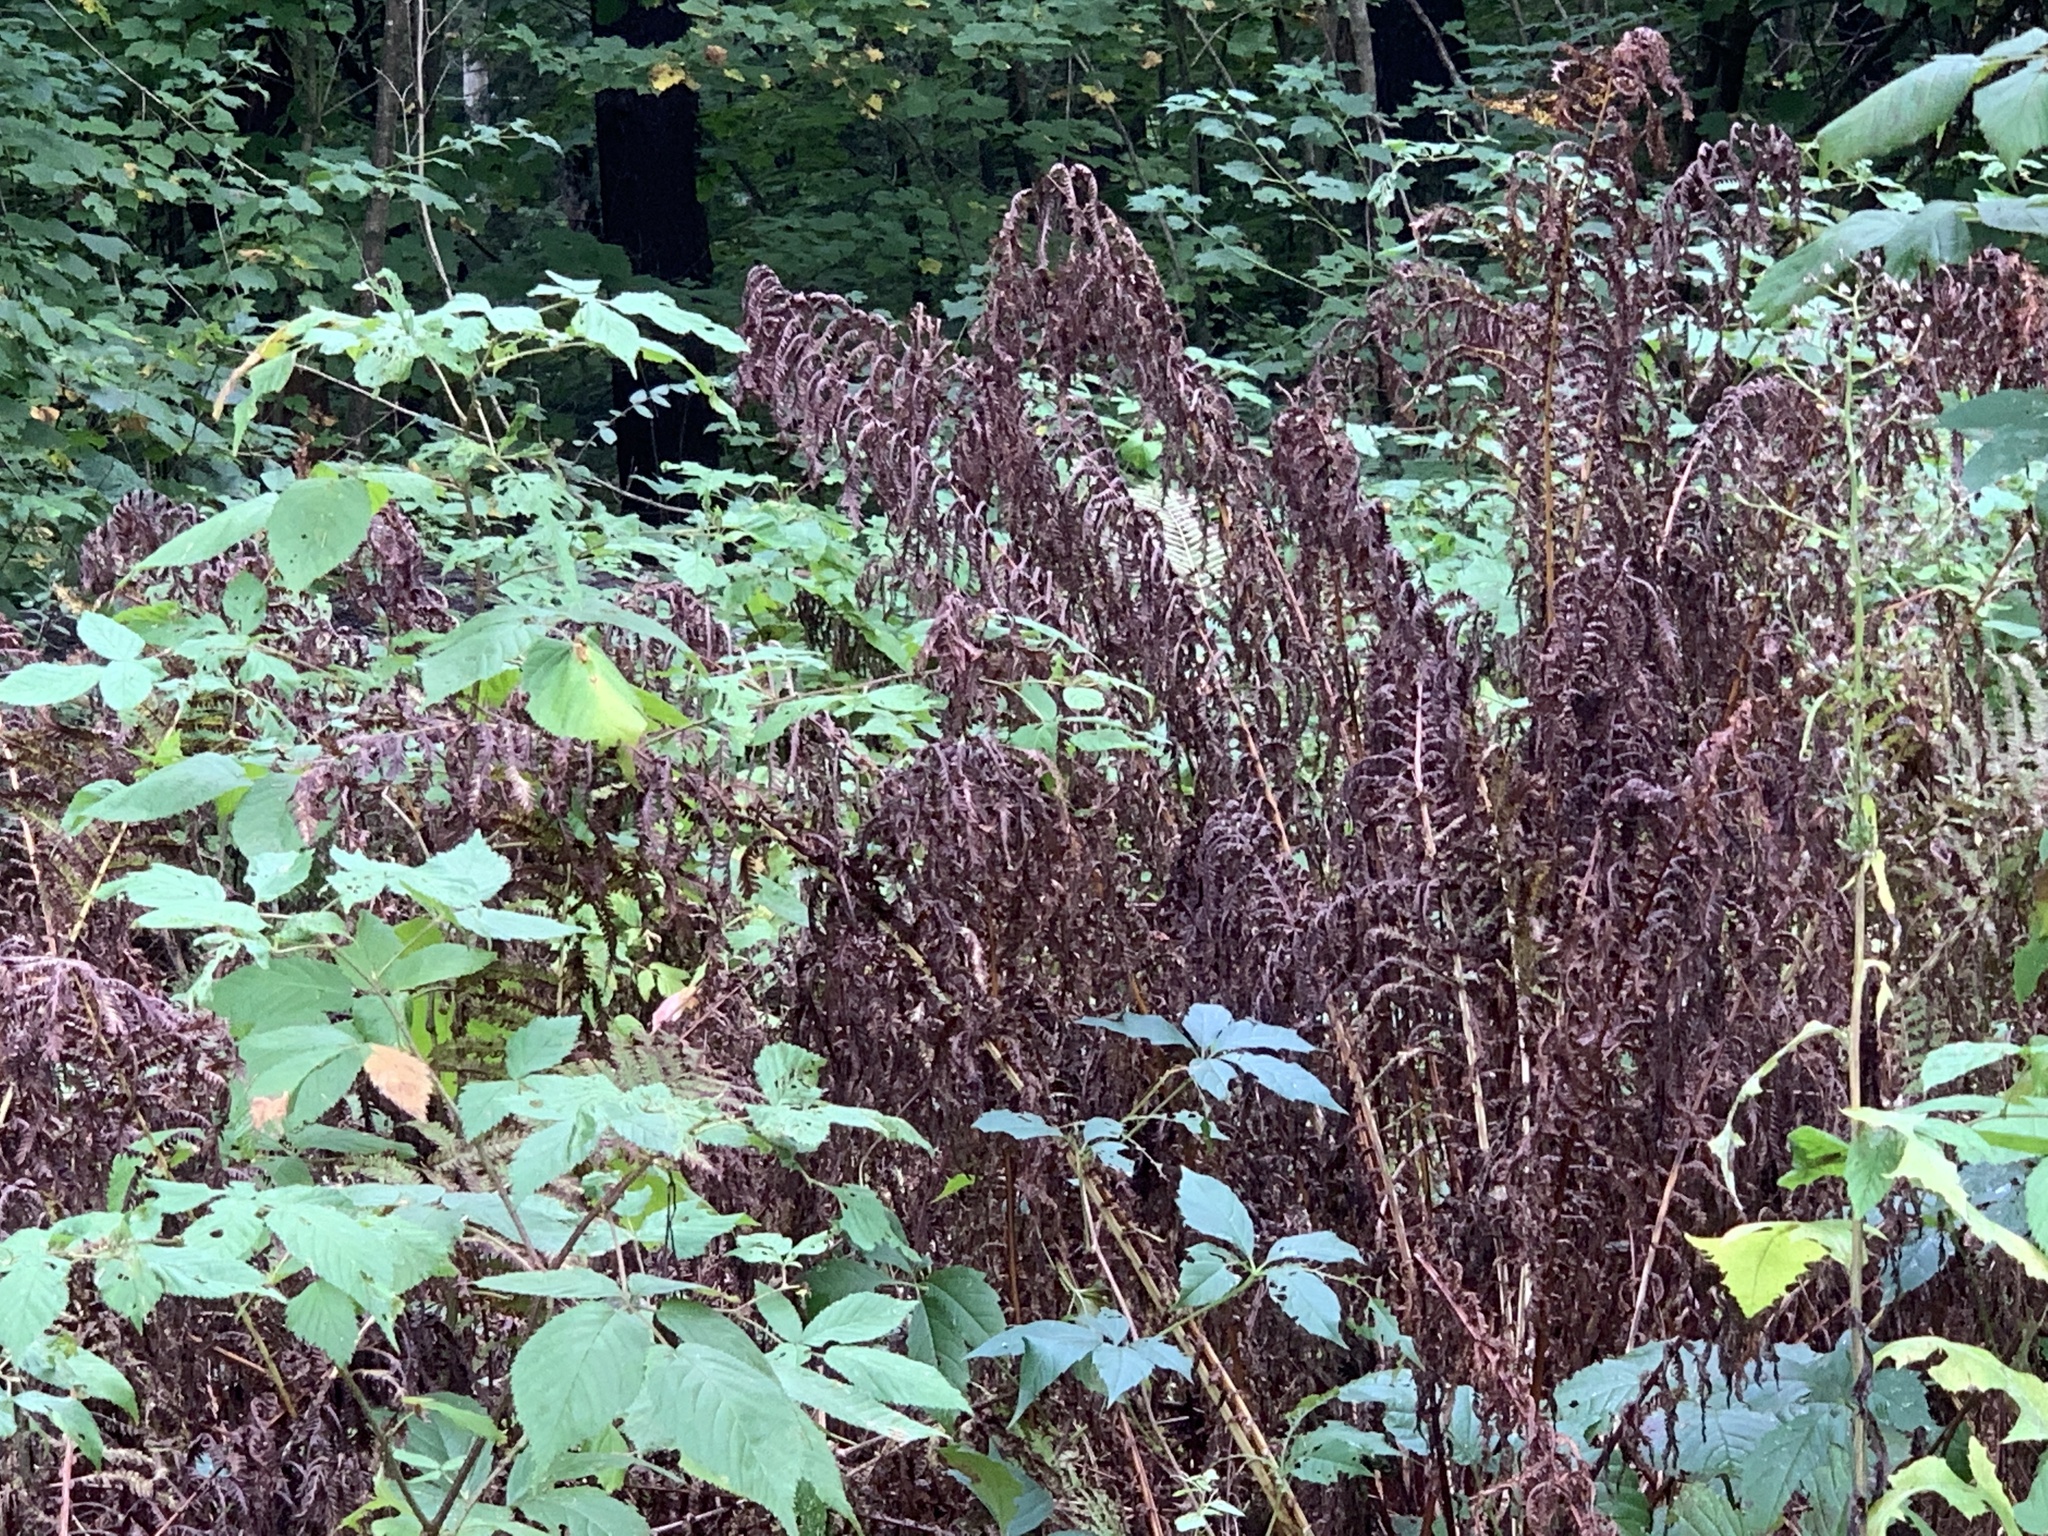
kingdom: Plantae
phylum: Tracheophyta
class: Polypodiopsida
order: Polypodiales
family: Onocleaceae
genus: Matteuccia
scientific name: Matteuccia struthiopteris
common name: Ostrich fern
